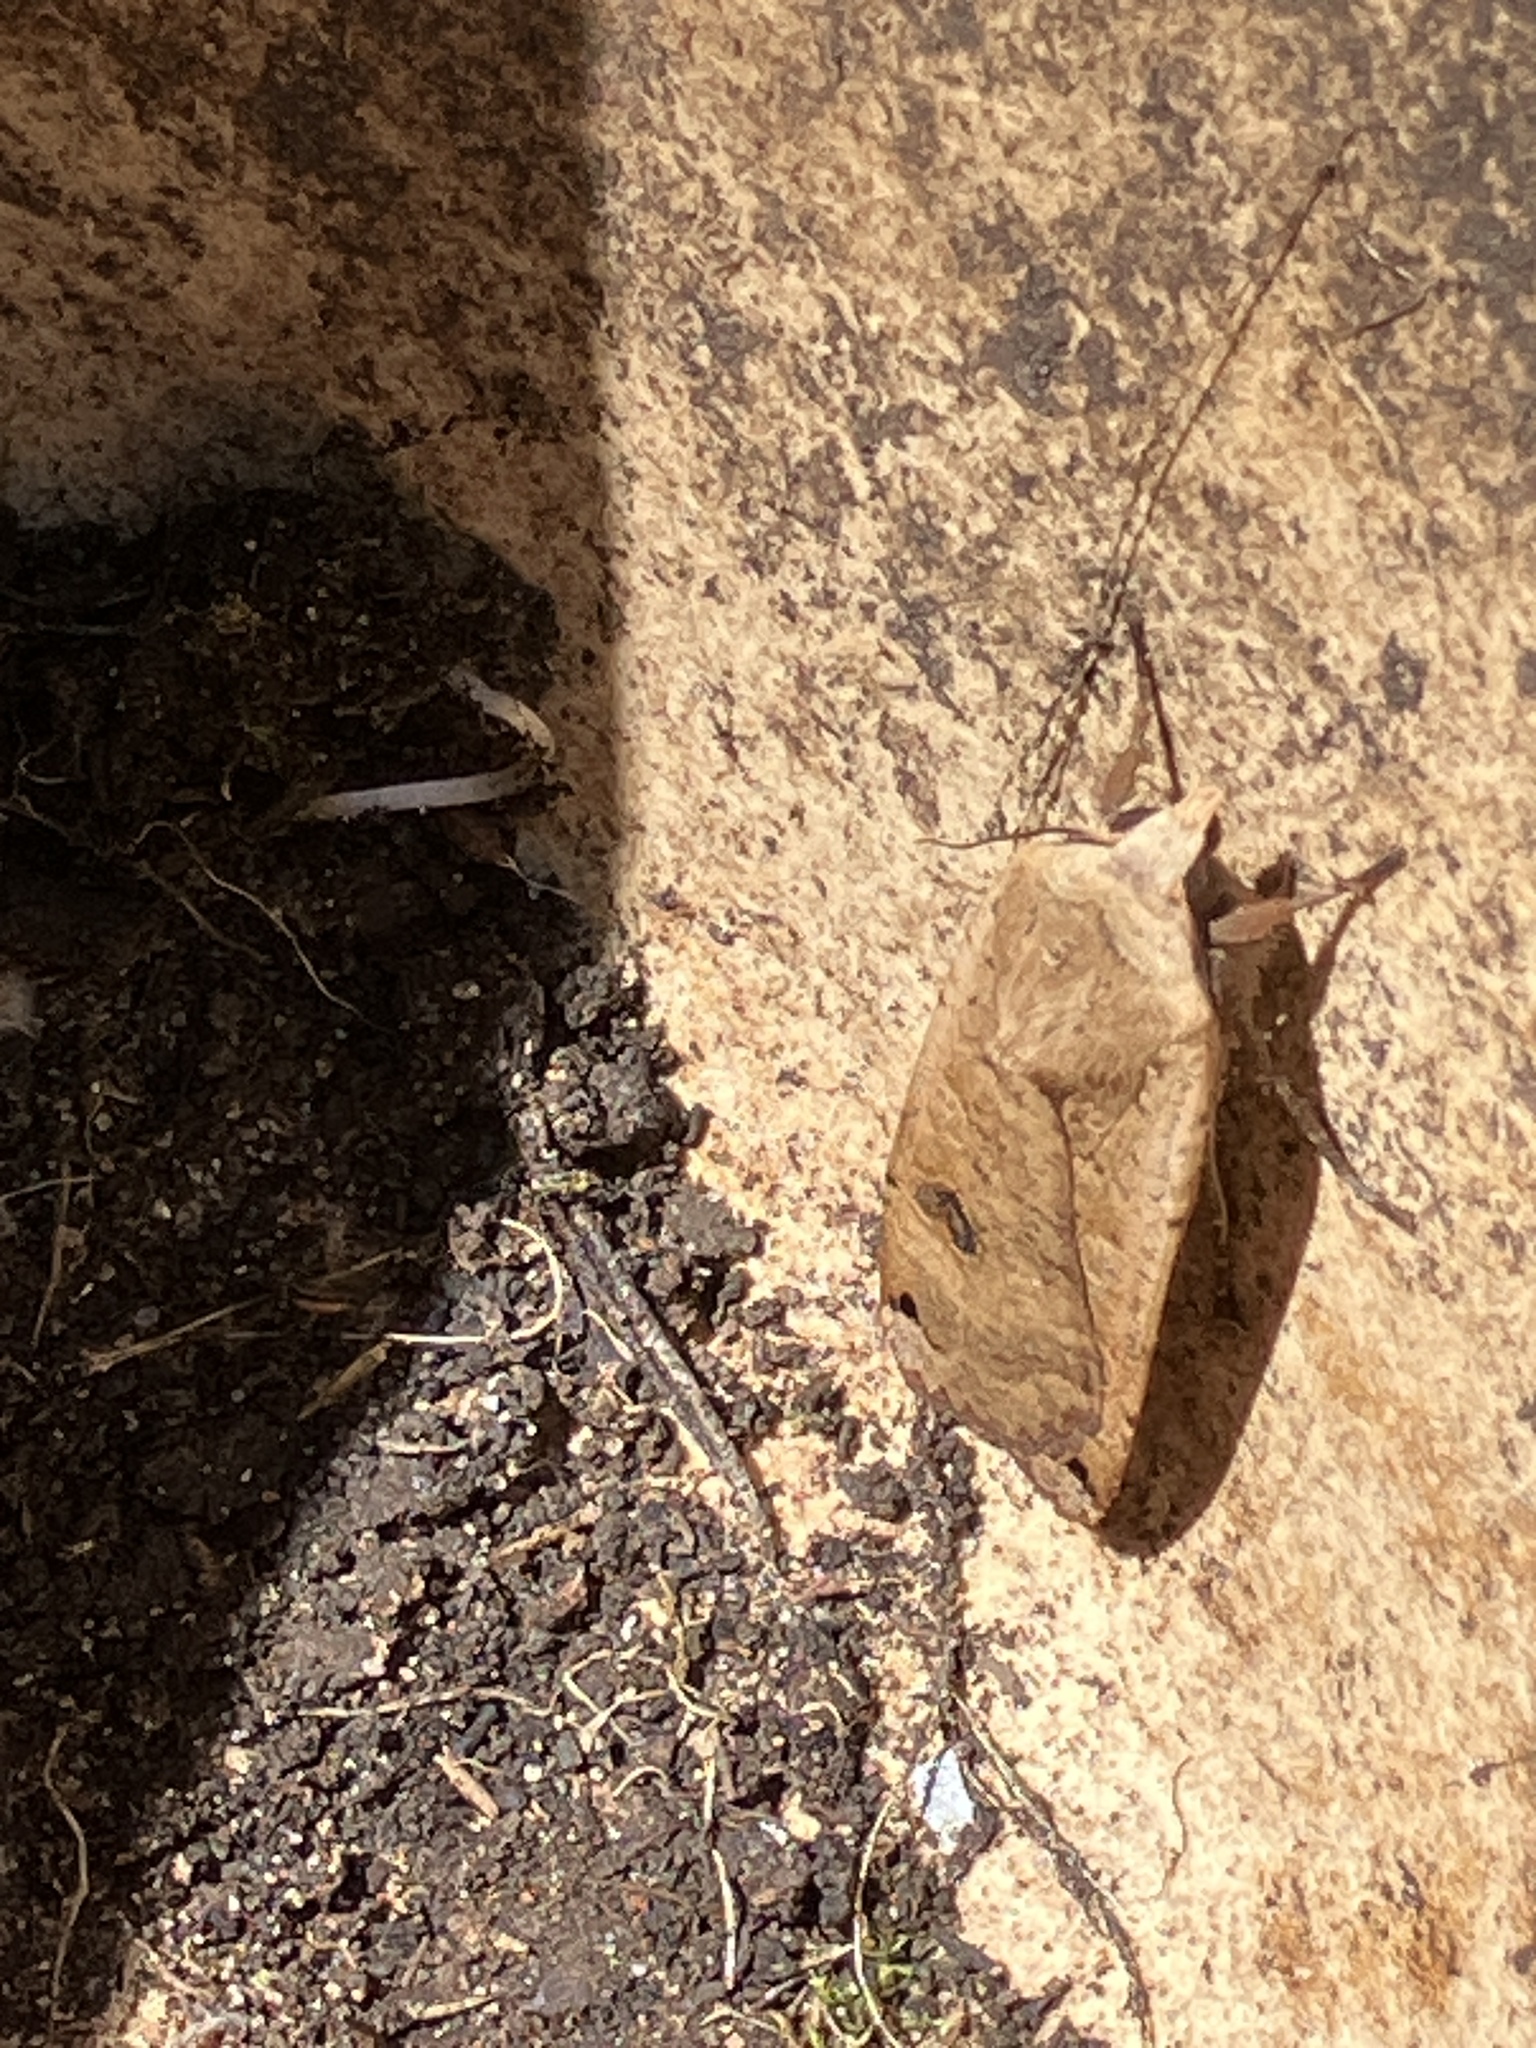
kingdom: Animalia
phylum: Arthropoda
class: Insecta
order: Lepidoptera
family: Noctuidae
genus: Noctua
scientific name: Noctua pronuba
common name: Large yellow underwing
